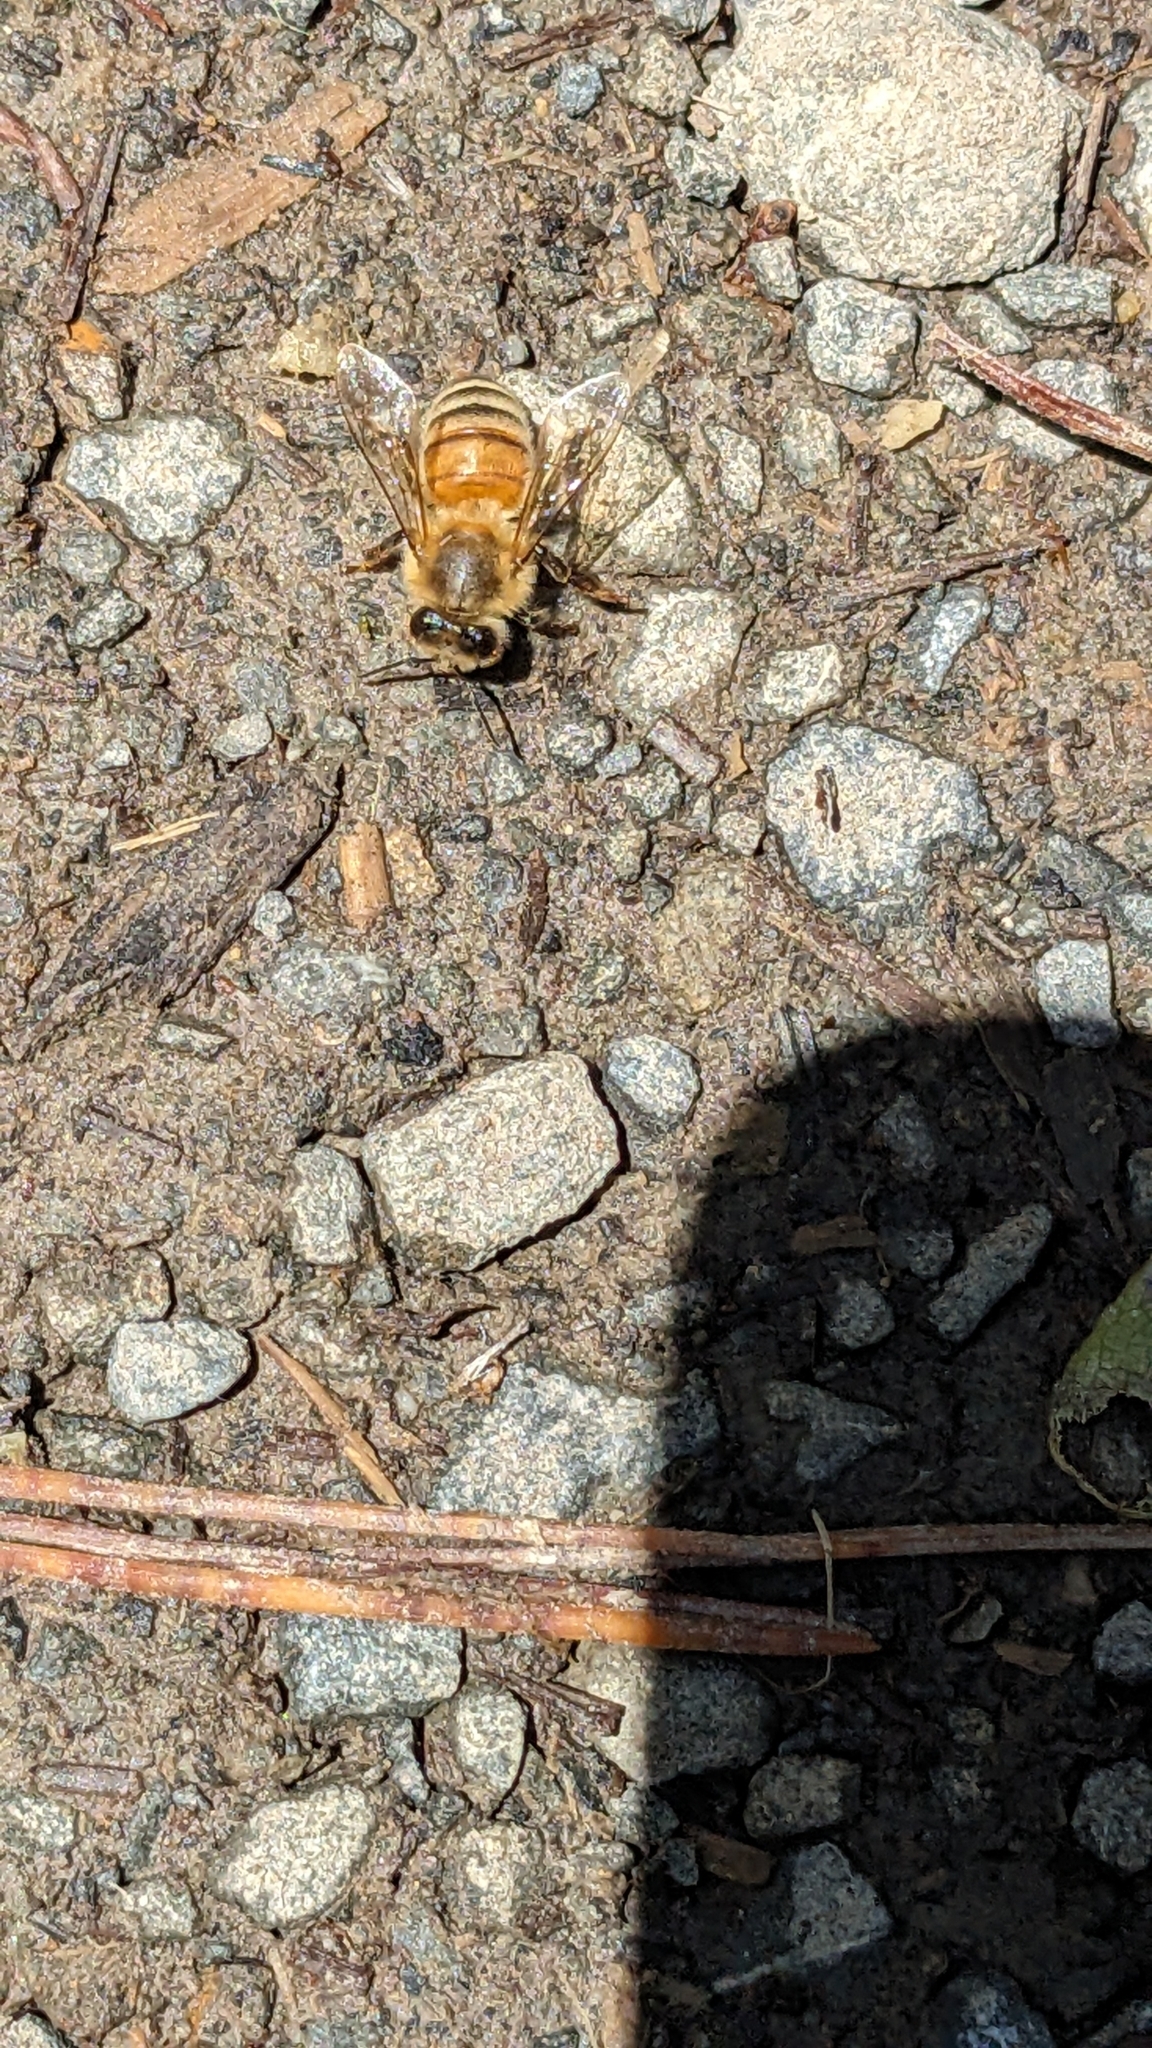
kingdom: Animalia
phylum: Arthropoda
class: Insecta
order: Hymenoptera
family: Apidae
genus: Apis
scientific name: Apis mellifera
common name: Honey bee
